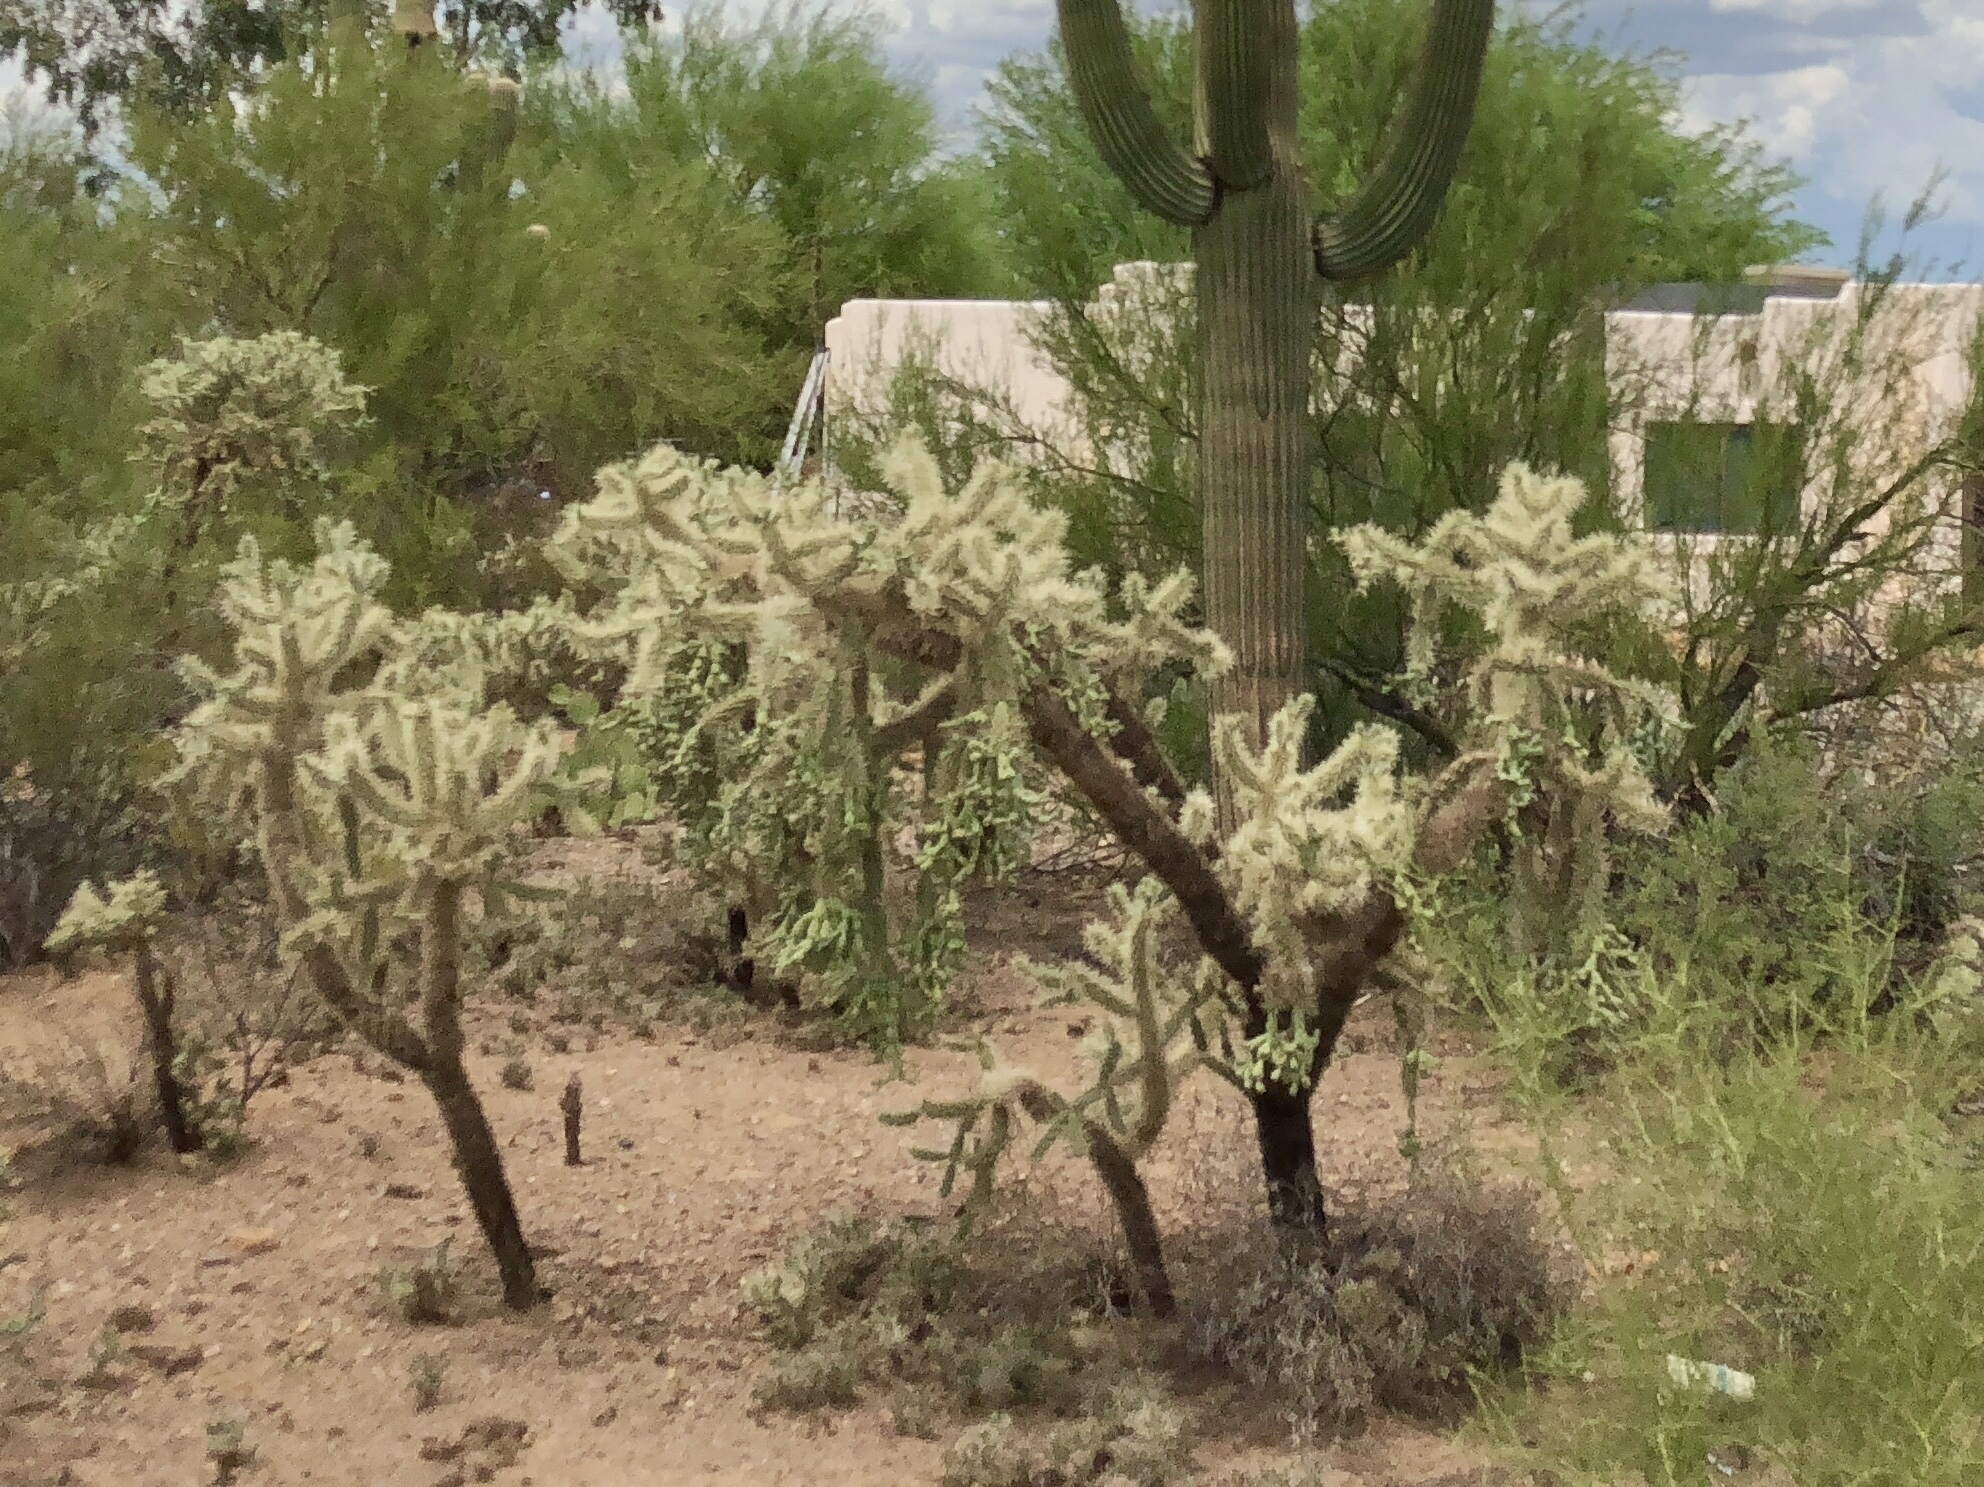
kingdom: Plantae
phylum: Tracheophyta
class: Magnoliopsida
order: Caryophyllales
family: Cactaceae
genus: Cylindropuntia
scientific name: Cylindropuntia fulgida
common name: Jumping cholla
